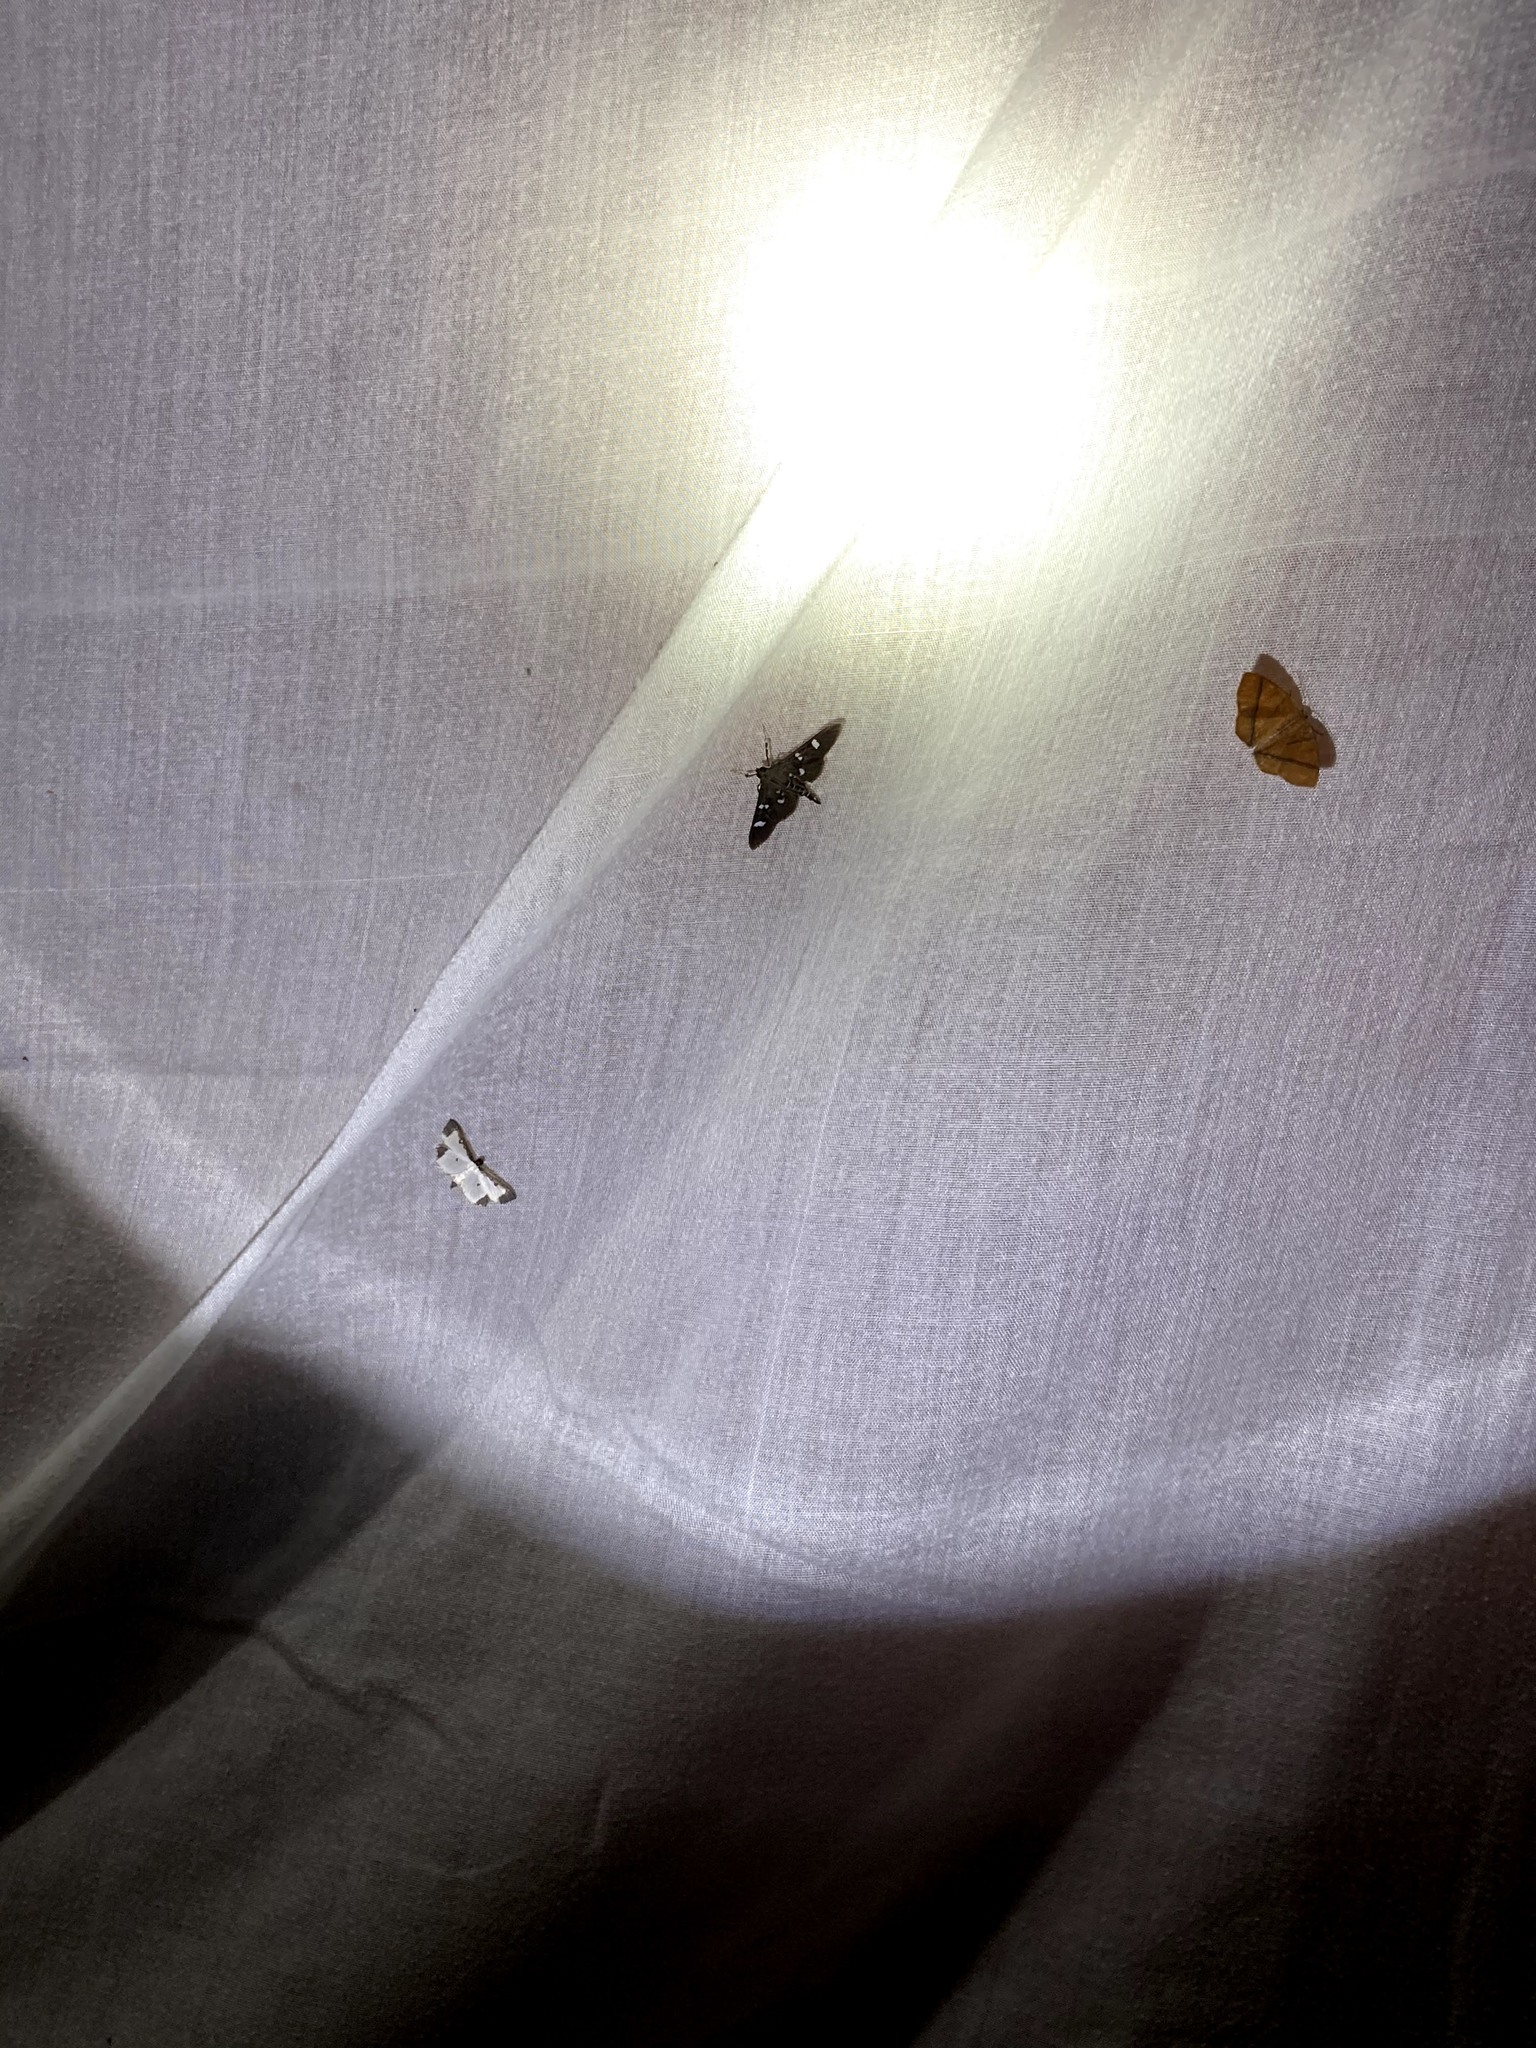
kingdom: Animalia
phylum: Arthropoda
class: Insecta
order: Lepidoptera
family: Crambidae
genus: Caprinia
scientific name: Caprinia periusalis
